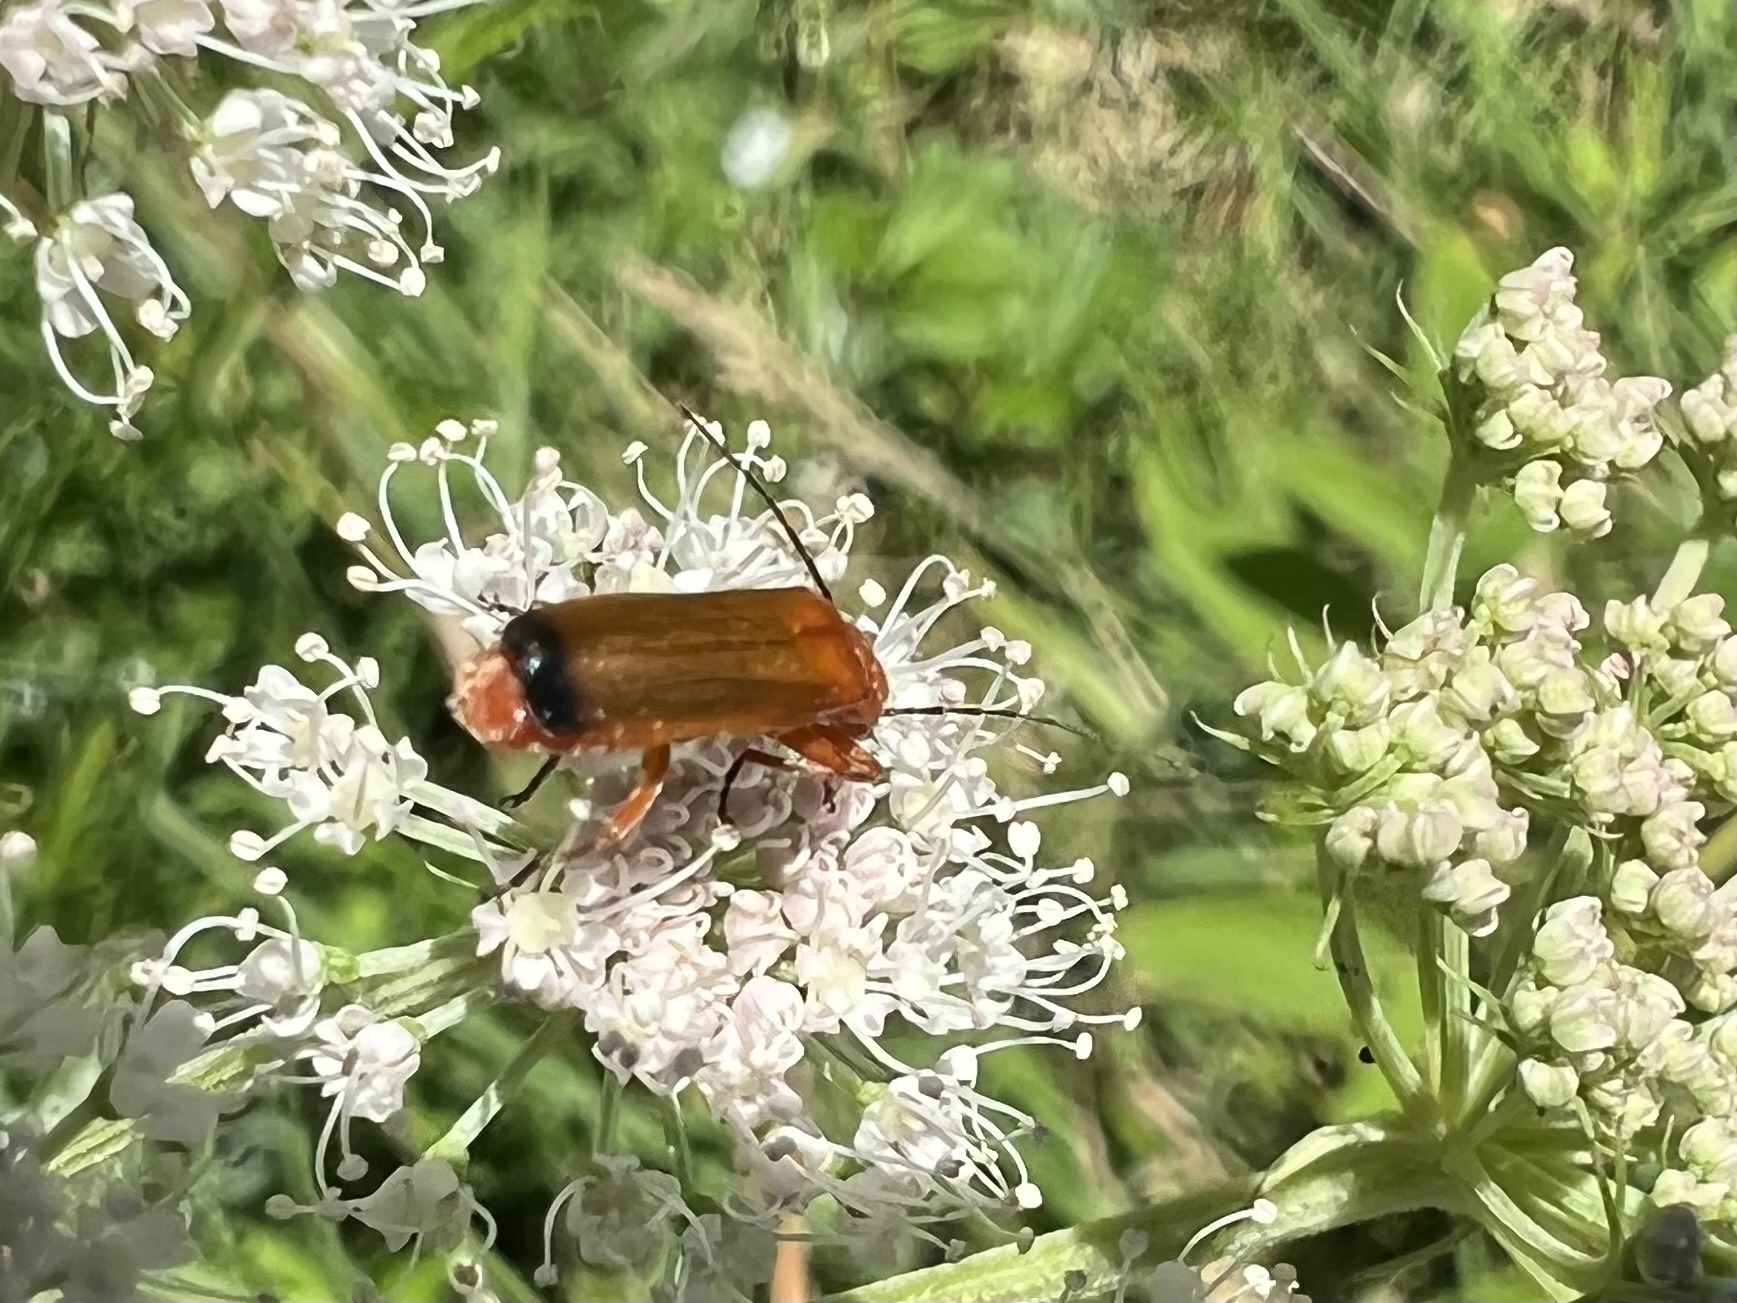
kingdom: Animalia
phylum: Arthropoda
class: Insecta
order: Coleoptera
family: Cantharidae
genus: Rhagonycha
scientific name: Rhagonycha fulva
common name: Common red soldier beetle
